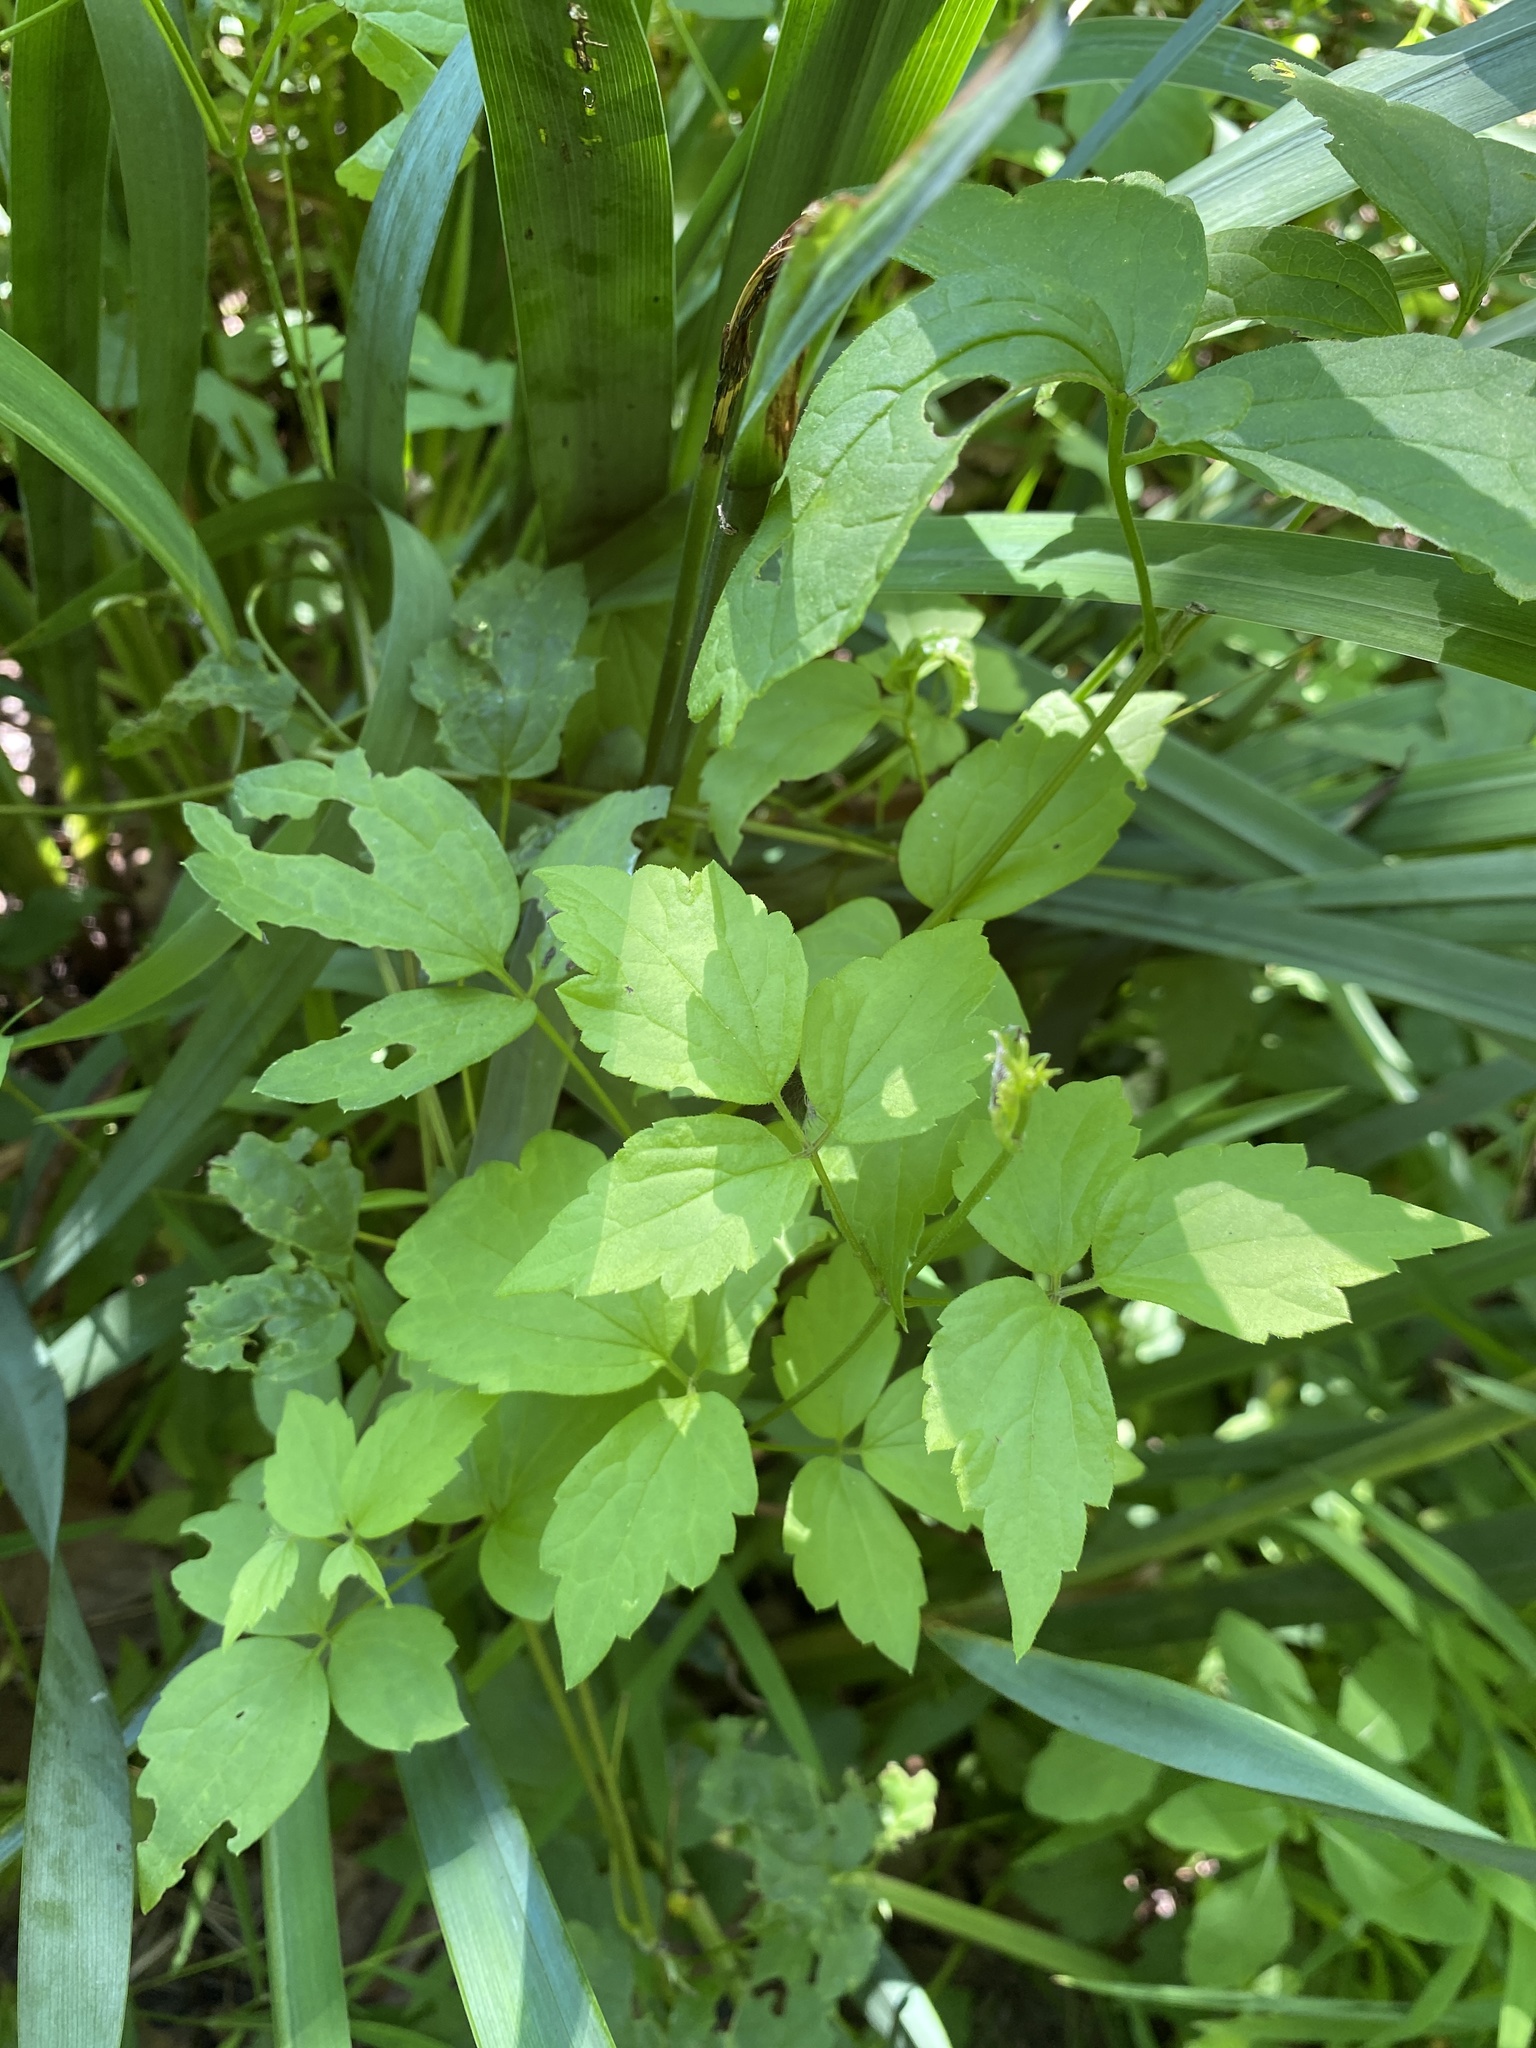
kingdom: Plantae
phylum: Tracheophyta
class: Magnoliopsida
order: Ranunculales
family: Ranunculaceae
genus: Clematis
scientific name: Clematis virginiana
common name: Virgin's-bower
